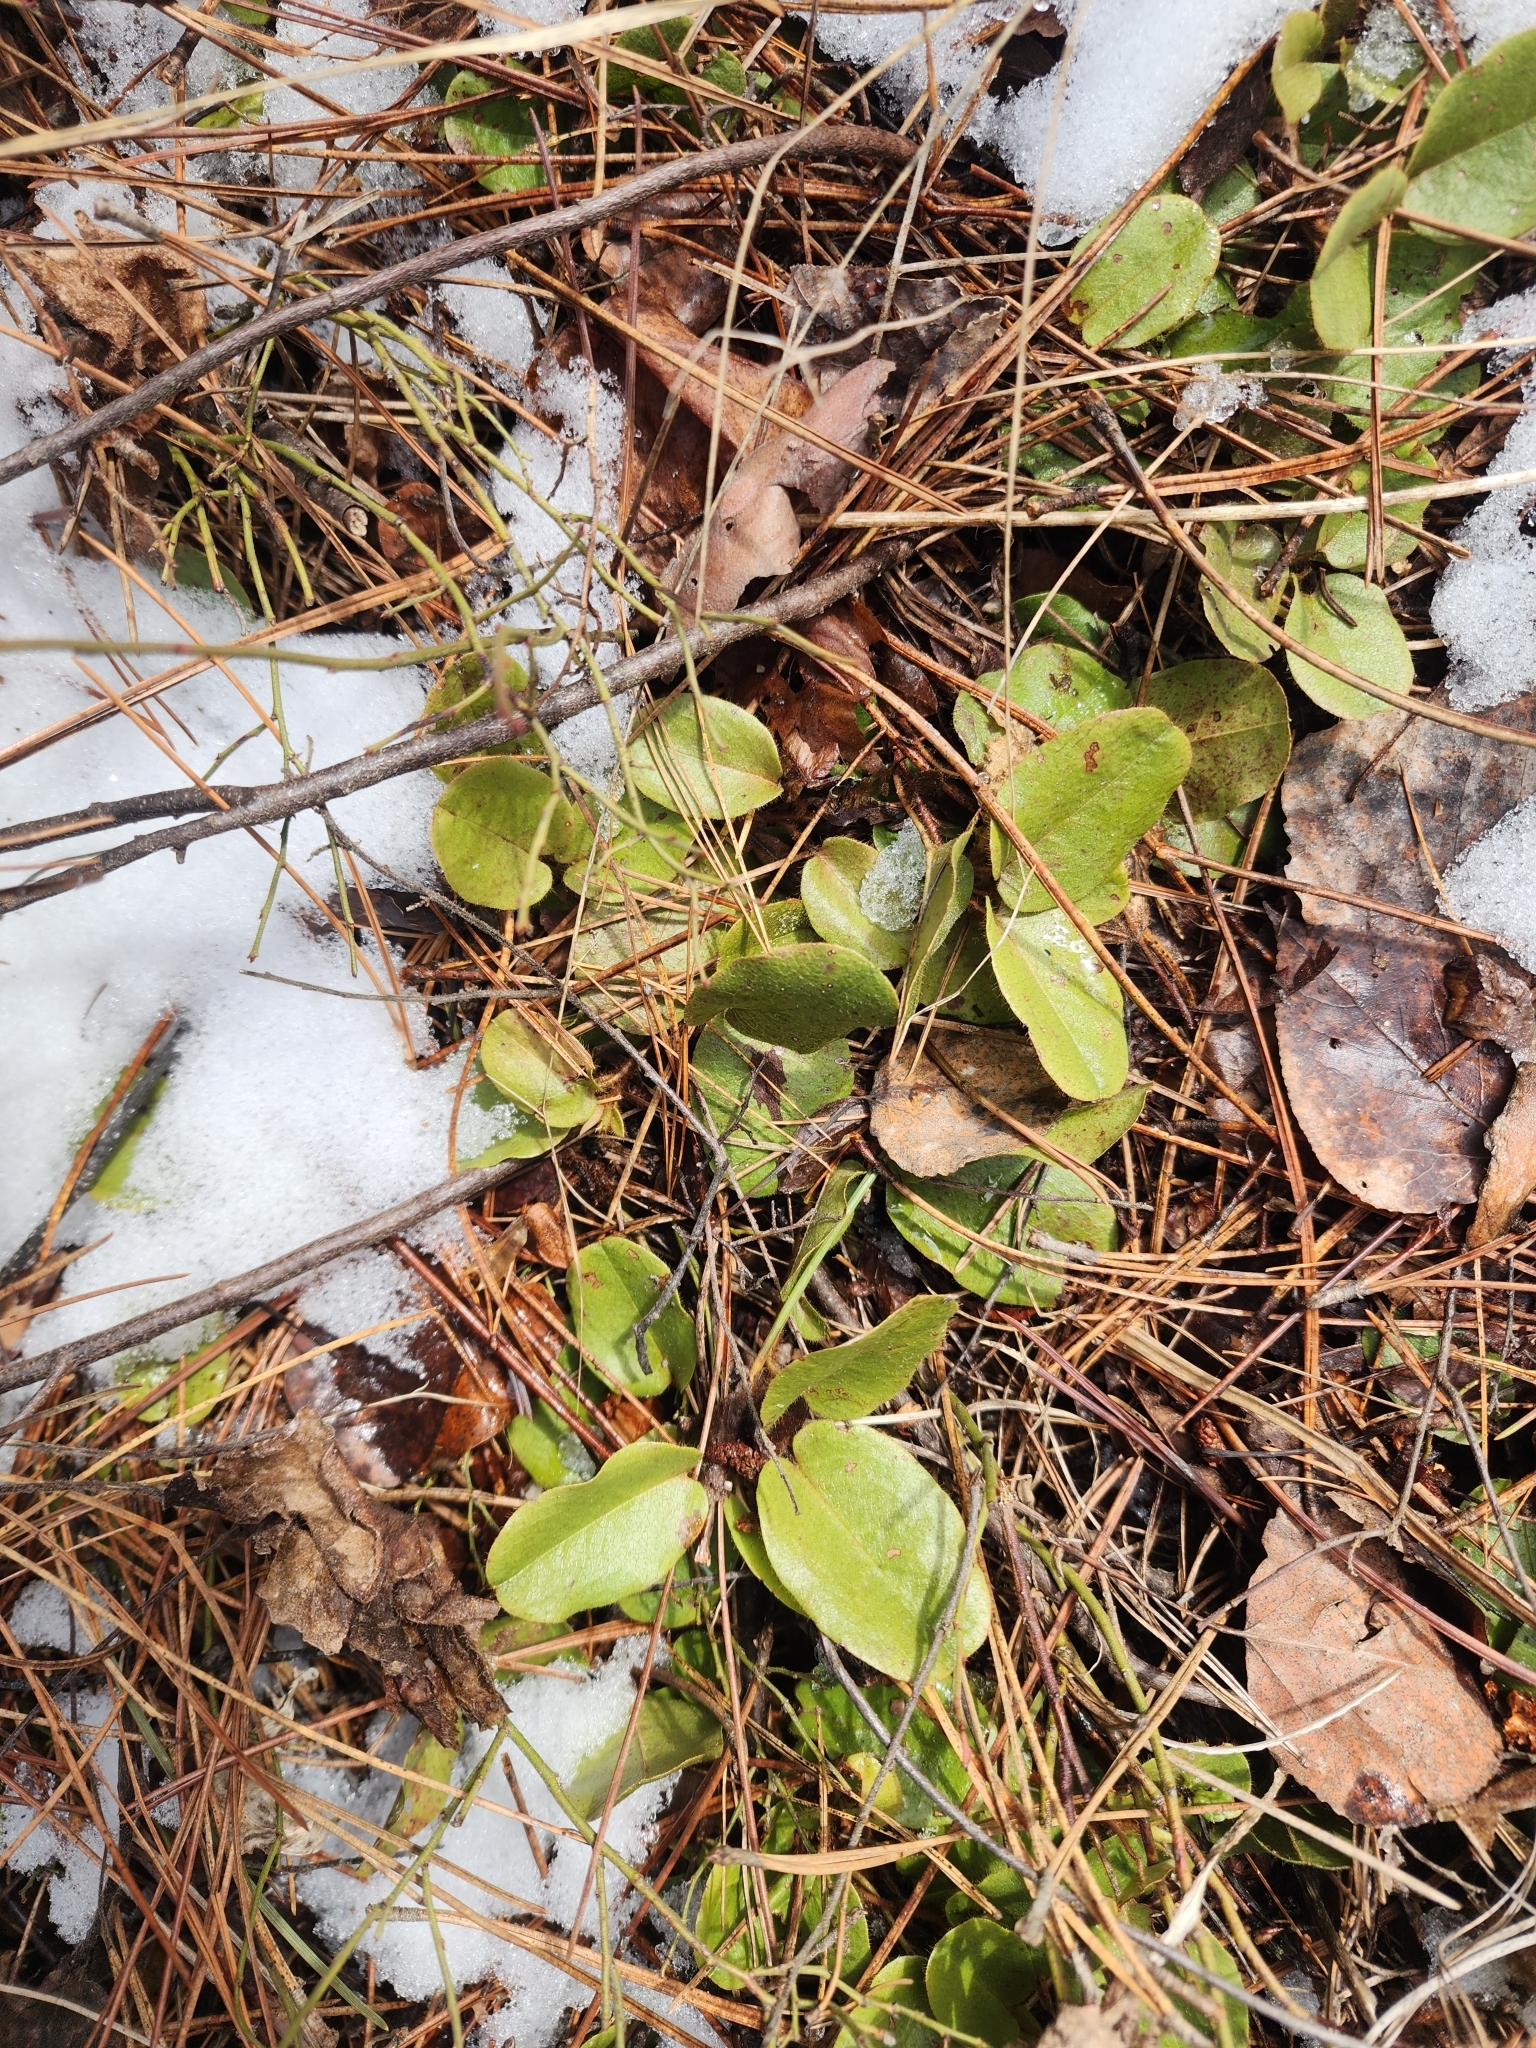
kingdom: Plantae
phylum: Tracheophyta
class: Magnoliopsida
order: Ericales
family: Ericaceae
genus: Epigaea
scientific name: Epigaea repens
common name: Gravelroot
